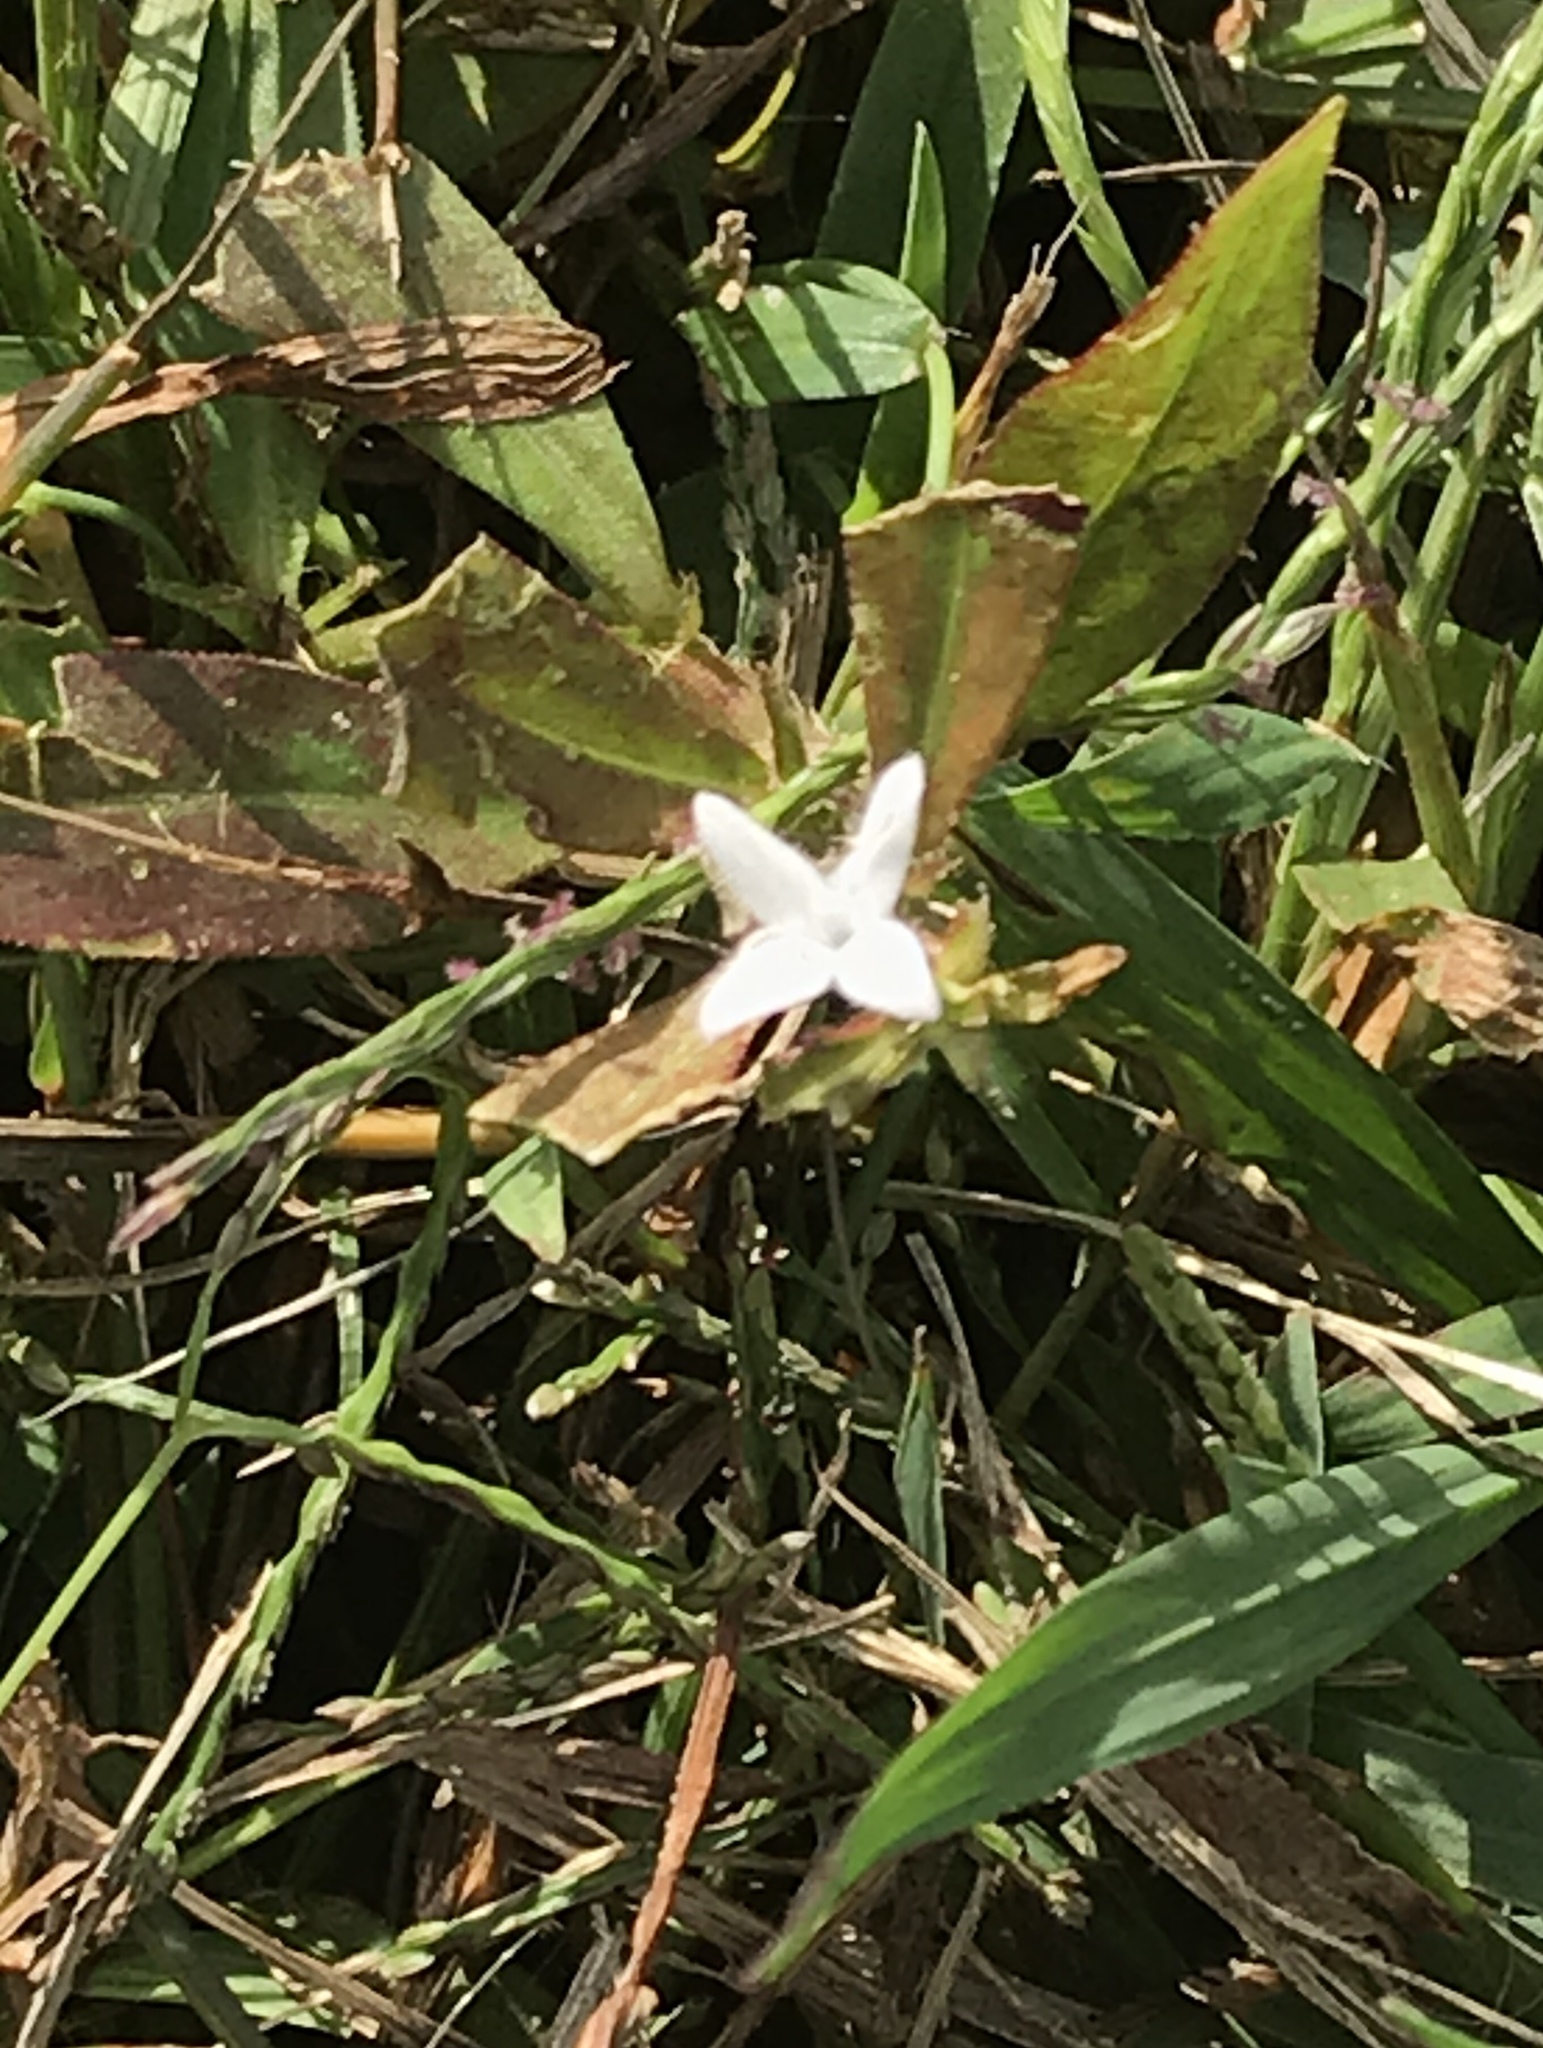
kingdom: Plantae
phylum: Tracheophyta
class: Magnoliopsida
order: Gentianales
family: Rubiaceae
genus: Diodia
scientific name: Diodia virginiana
